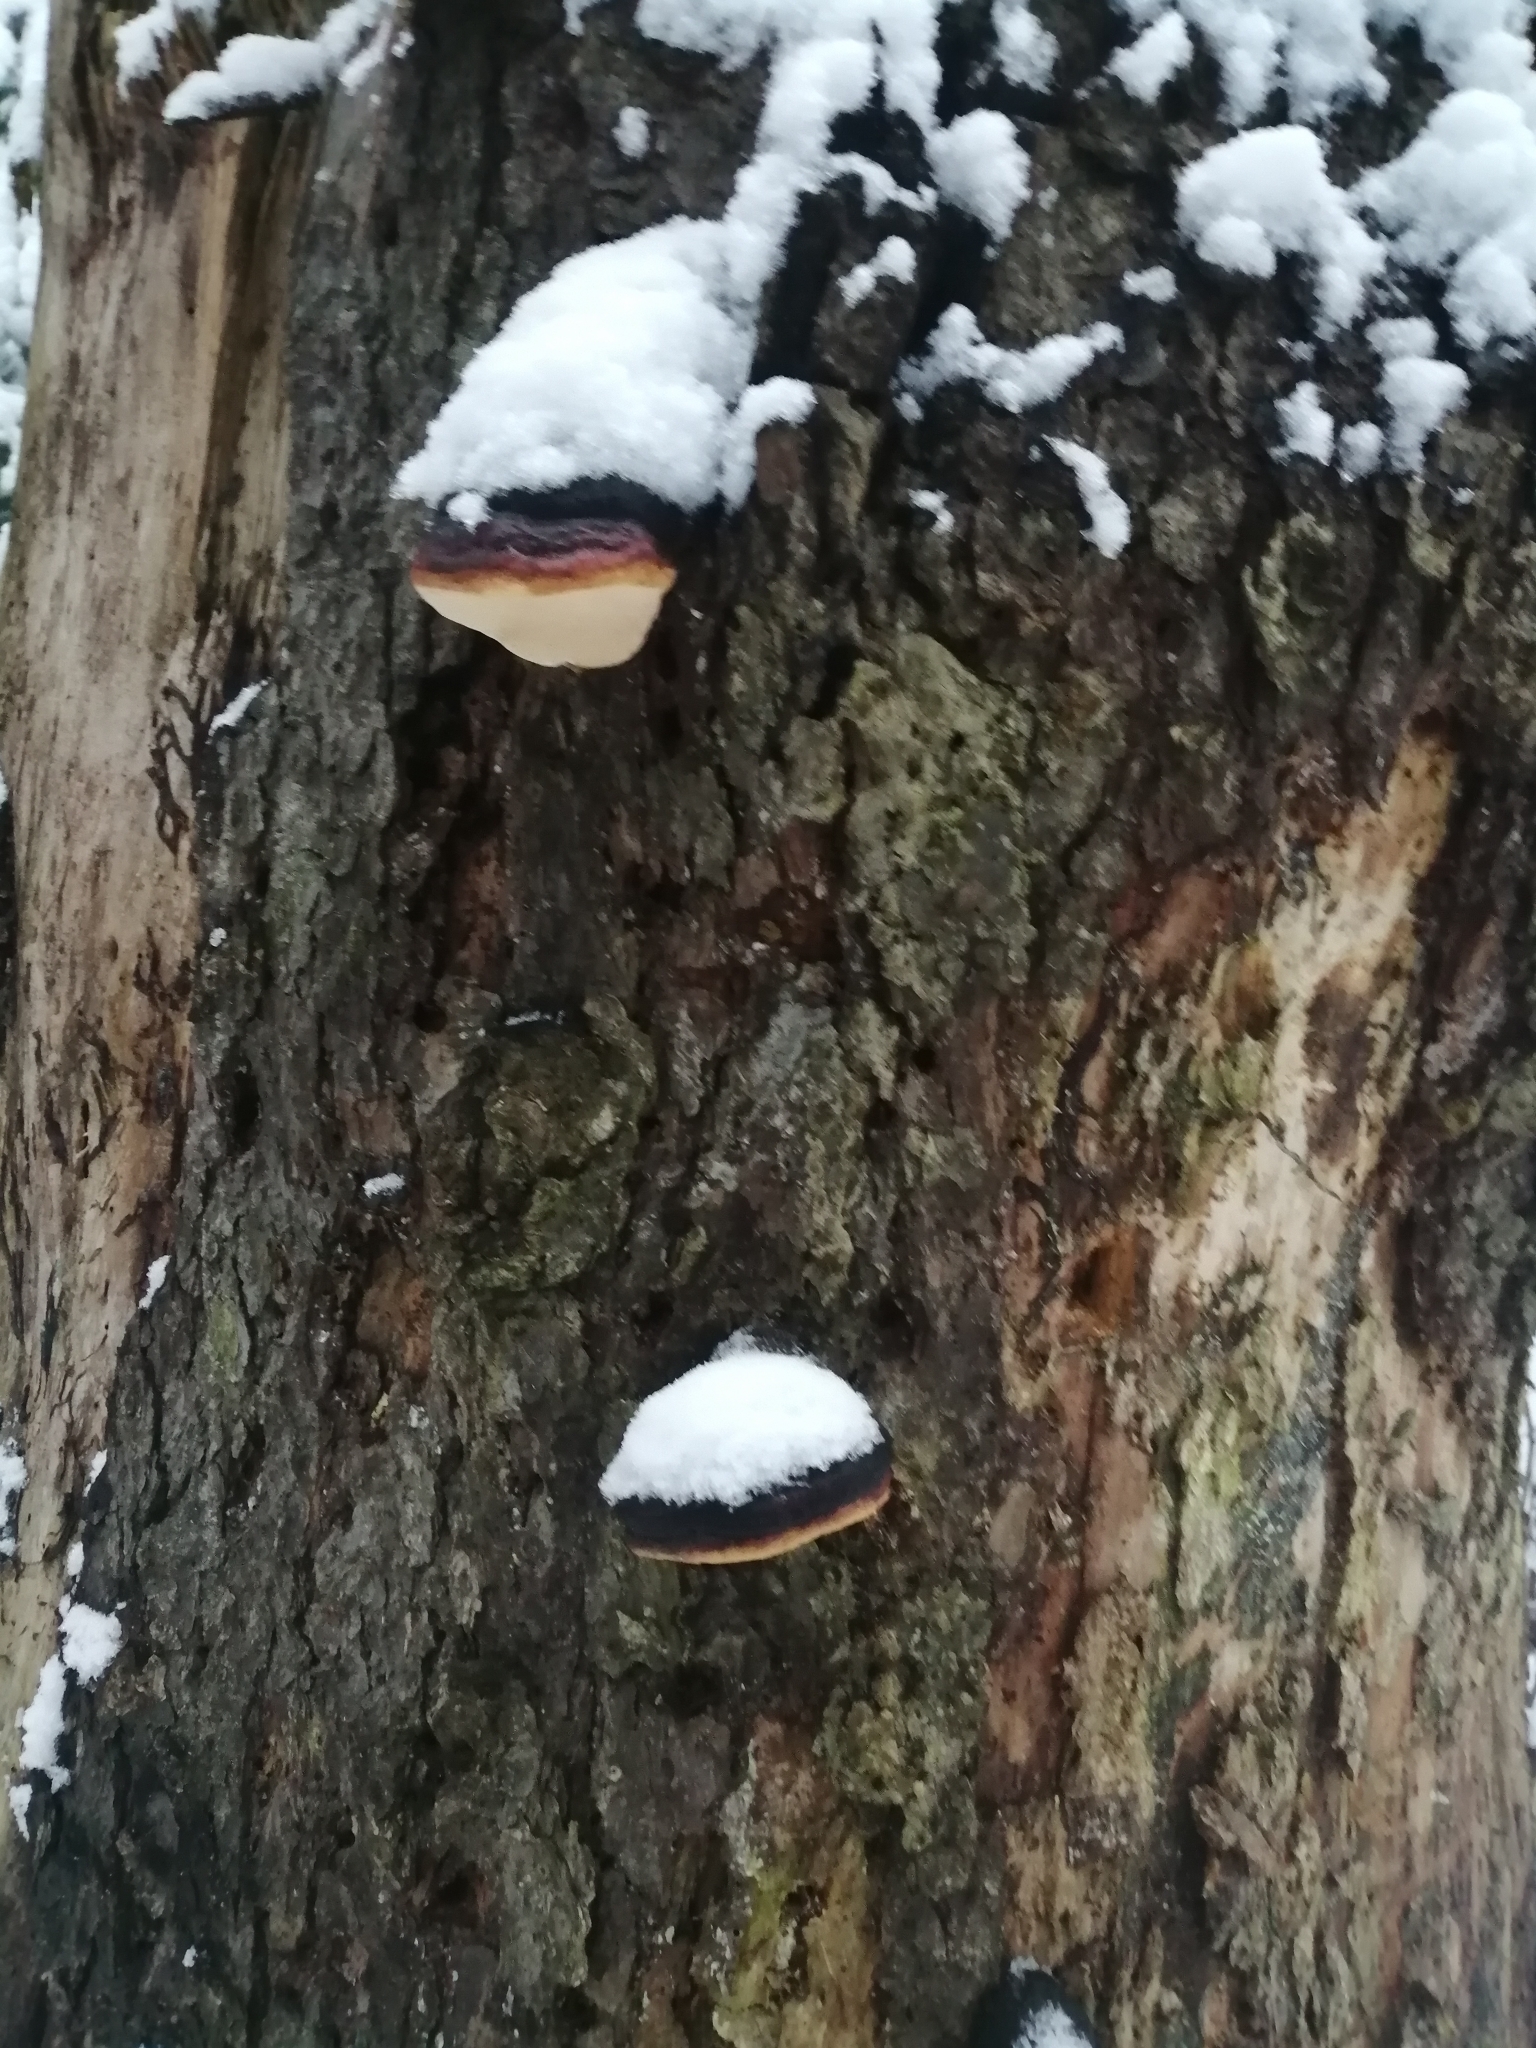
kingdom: Fungi
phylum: Basidiomycota
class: Agaricomycetes
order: Polyporales
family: Fomitopsidaceae
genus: Fomitopsis
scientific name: Fomitopsis pinicola
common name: Red-belted bracket
